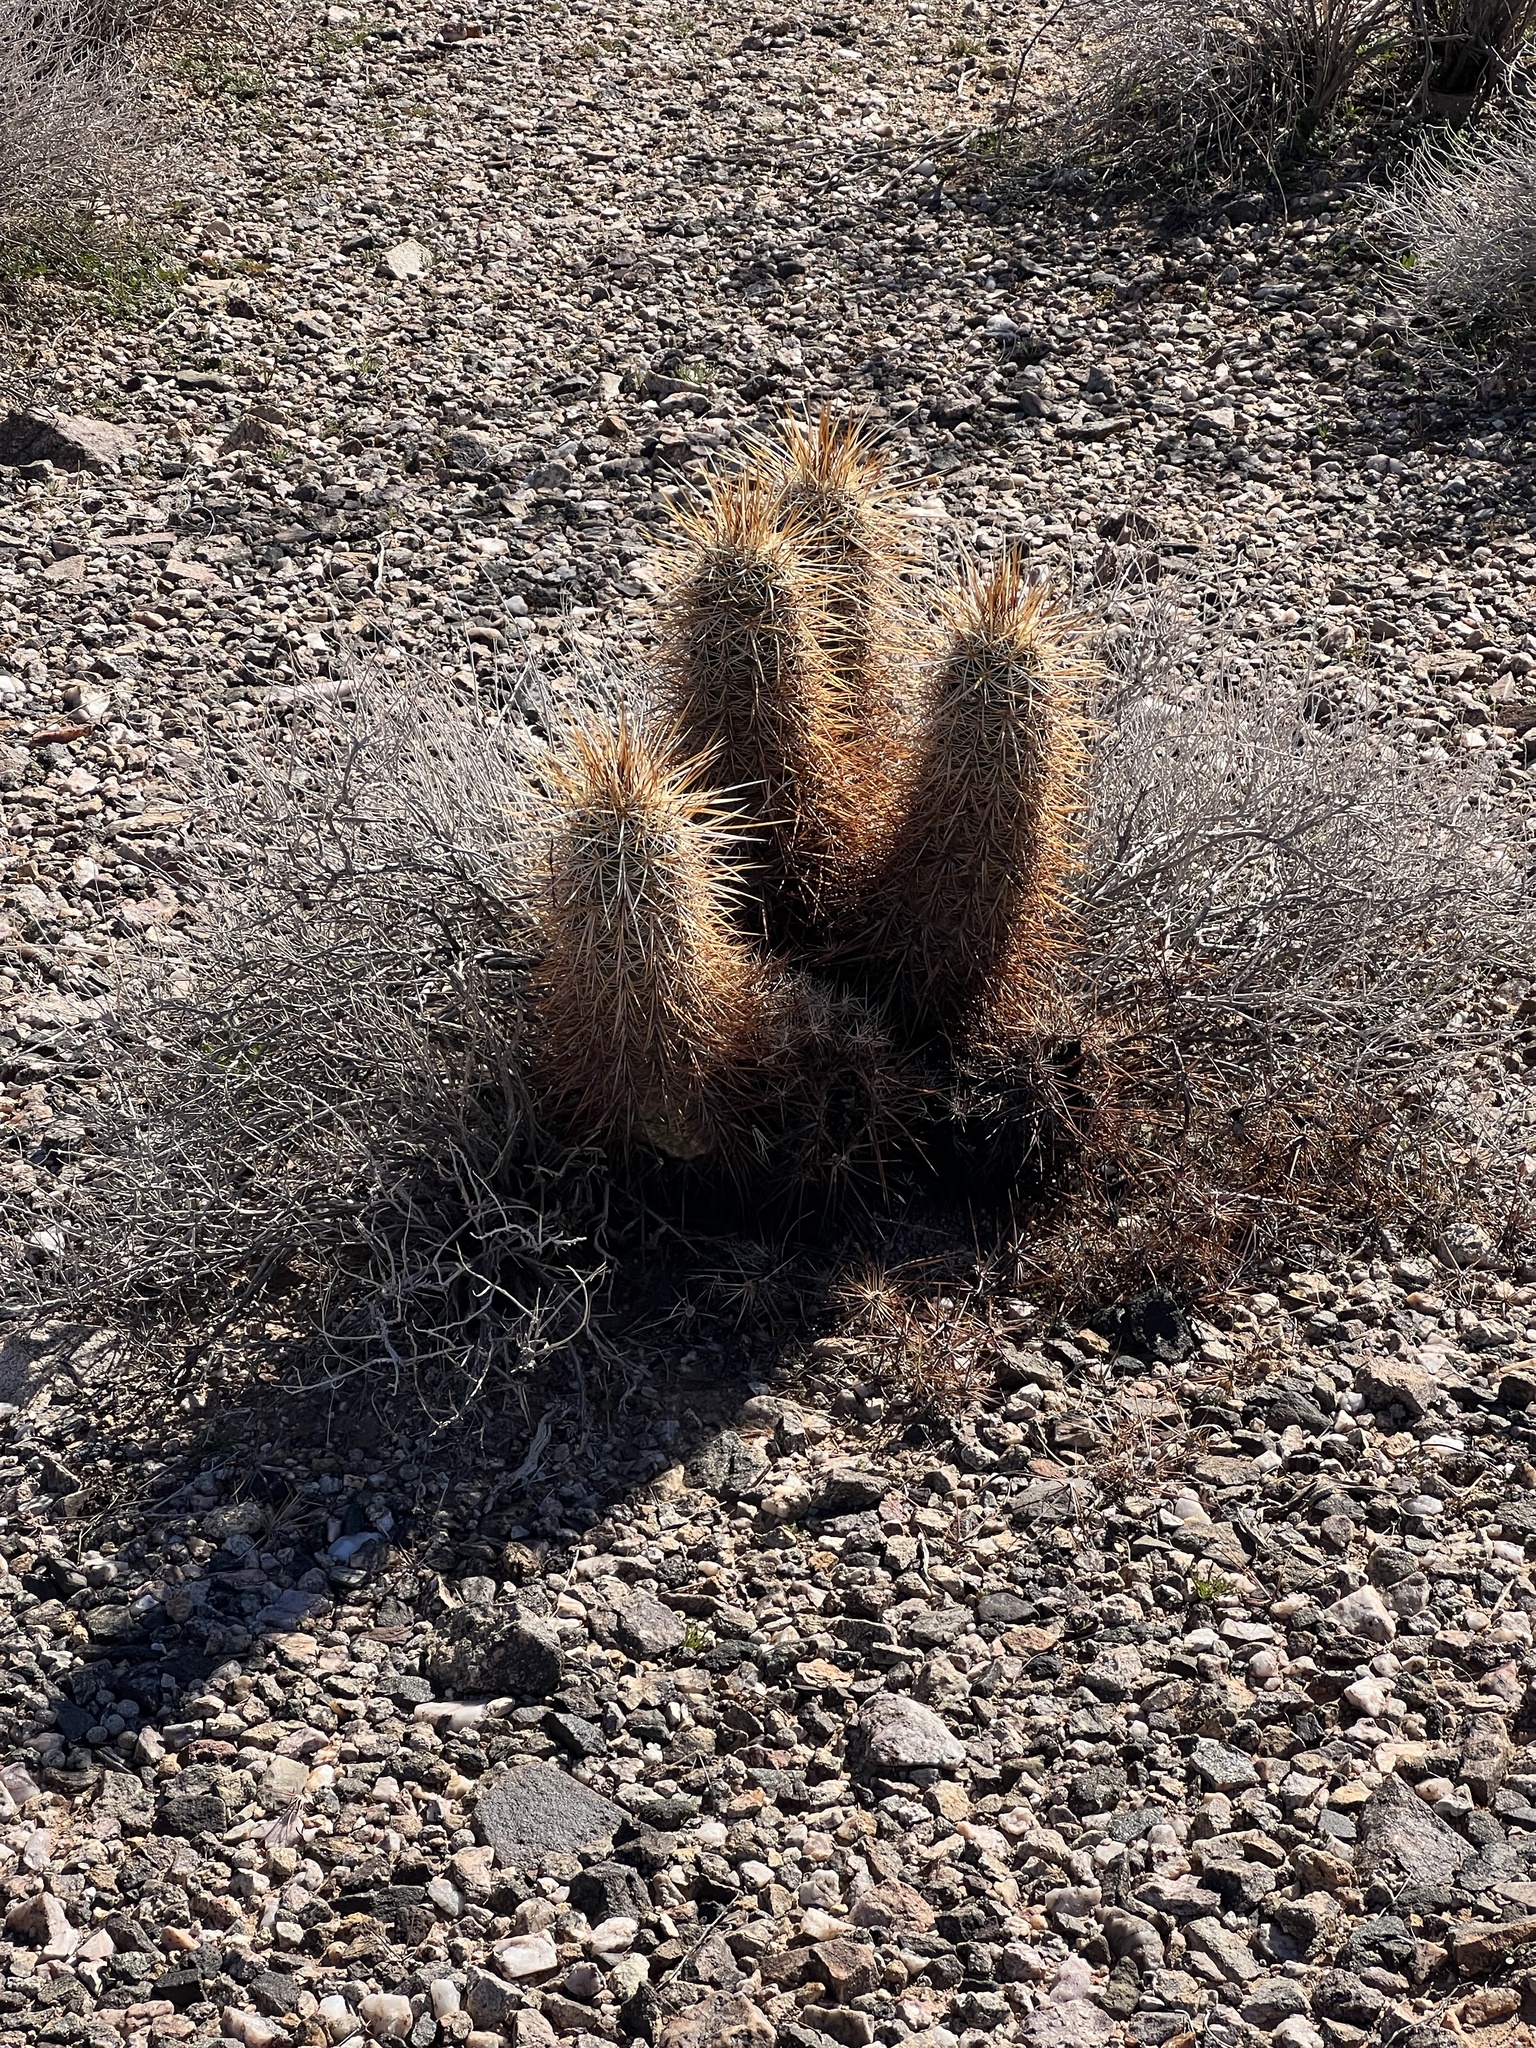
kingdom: Plantae
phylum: Tracheophyta
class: Magnoliopsida
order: Caryophyllales
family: Cactaceae
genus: Echinocereus
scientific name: Echinocereus engelmannii
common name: Engelmann's hedgehog cactus
